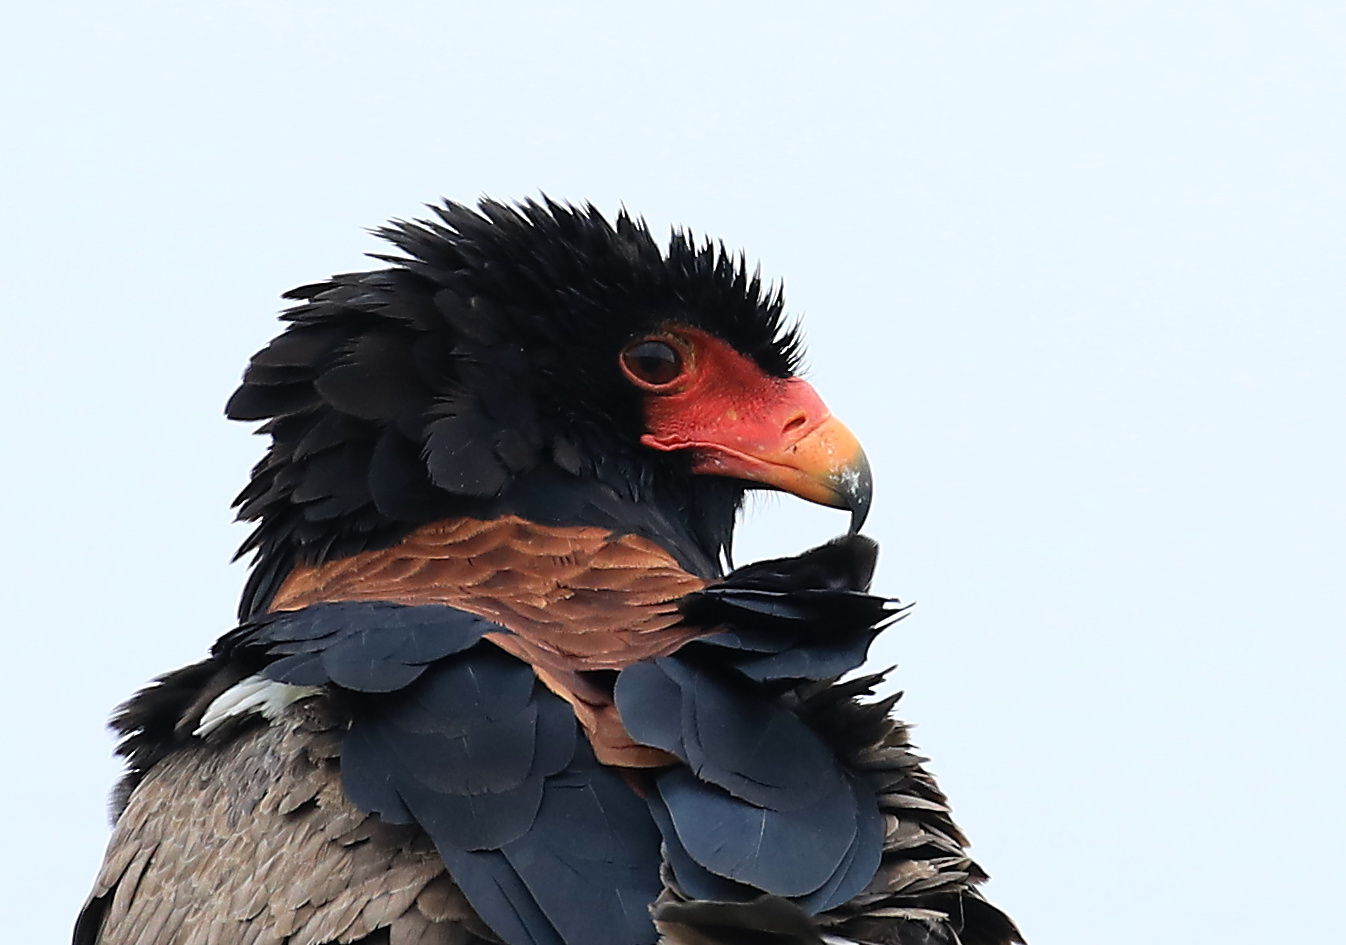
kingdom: Animalia
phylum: Chordata
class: Aves
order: Accipitriformes
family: Accipitridae
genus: Terathopius
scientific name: Terathopius ecaudatus
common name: Bateleur
